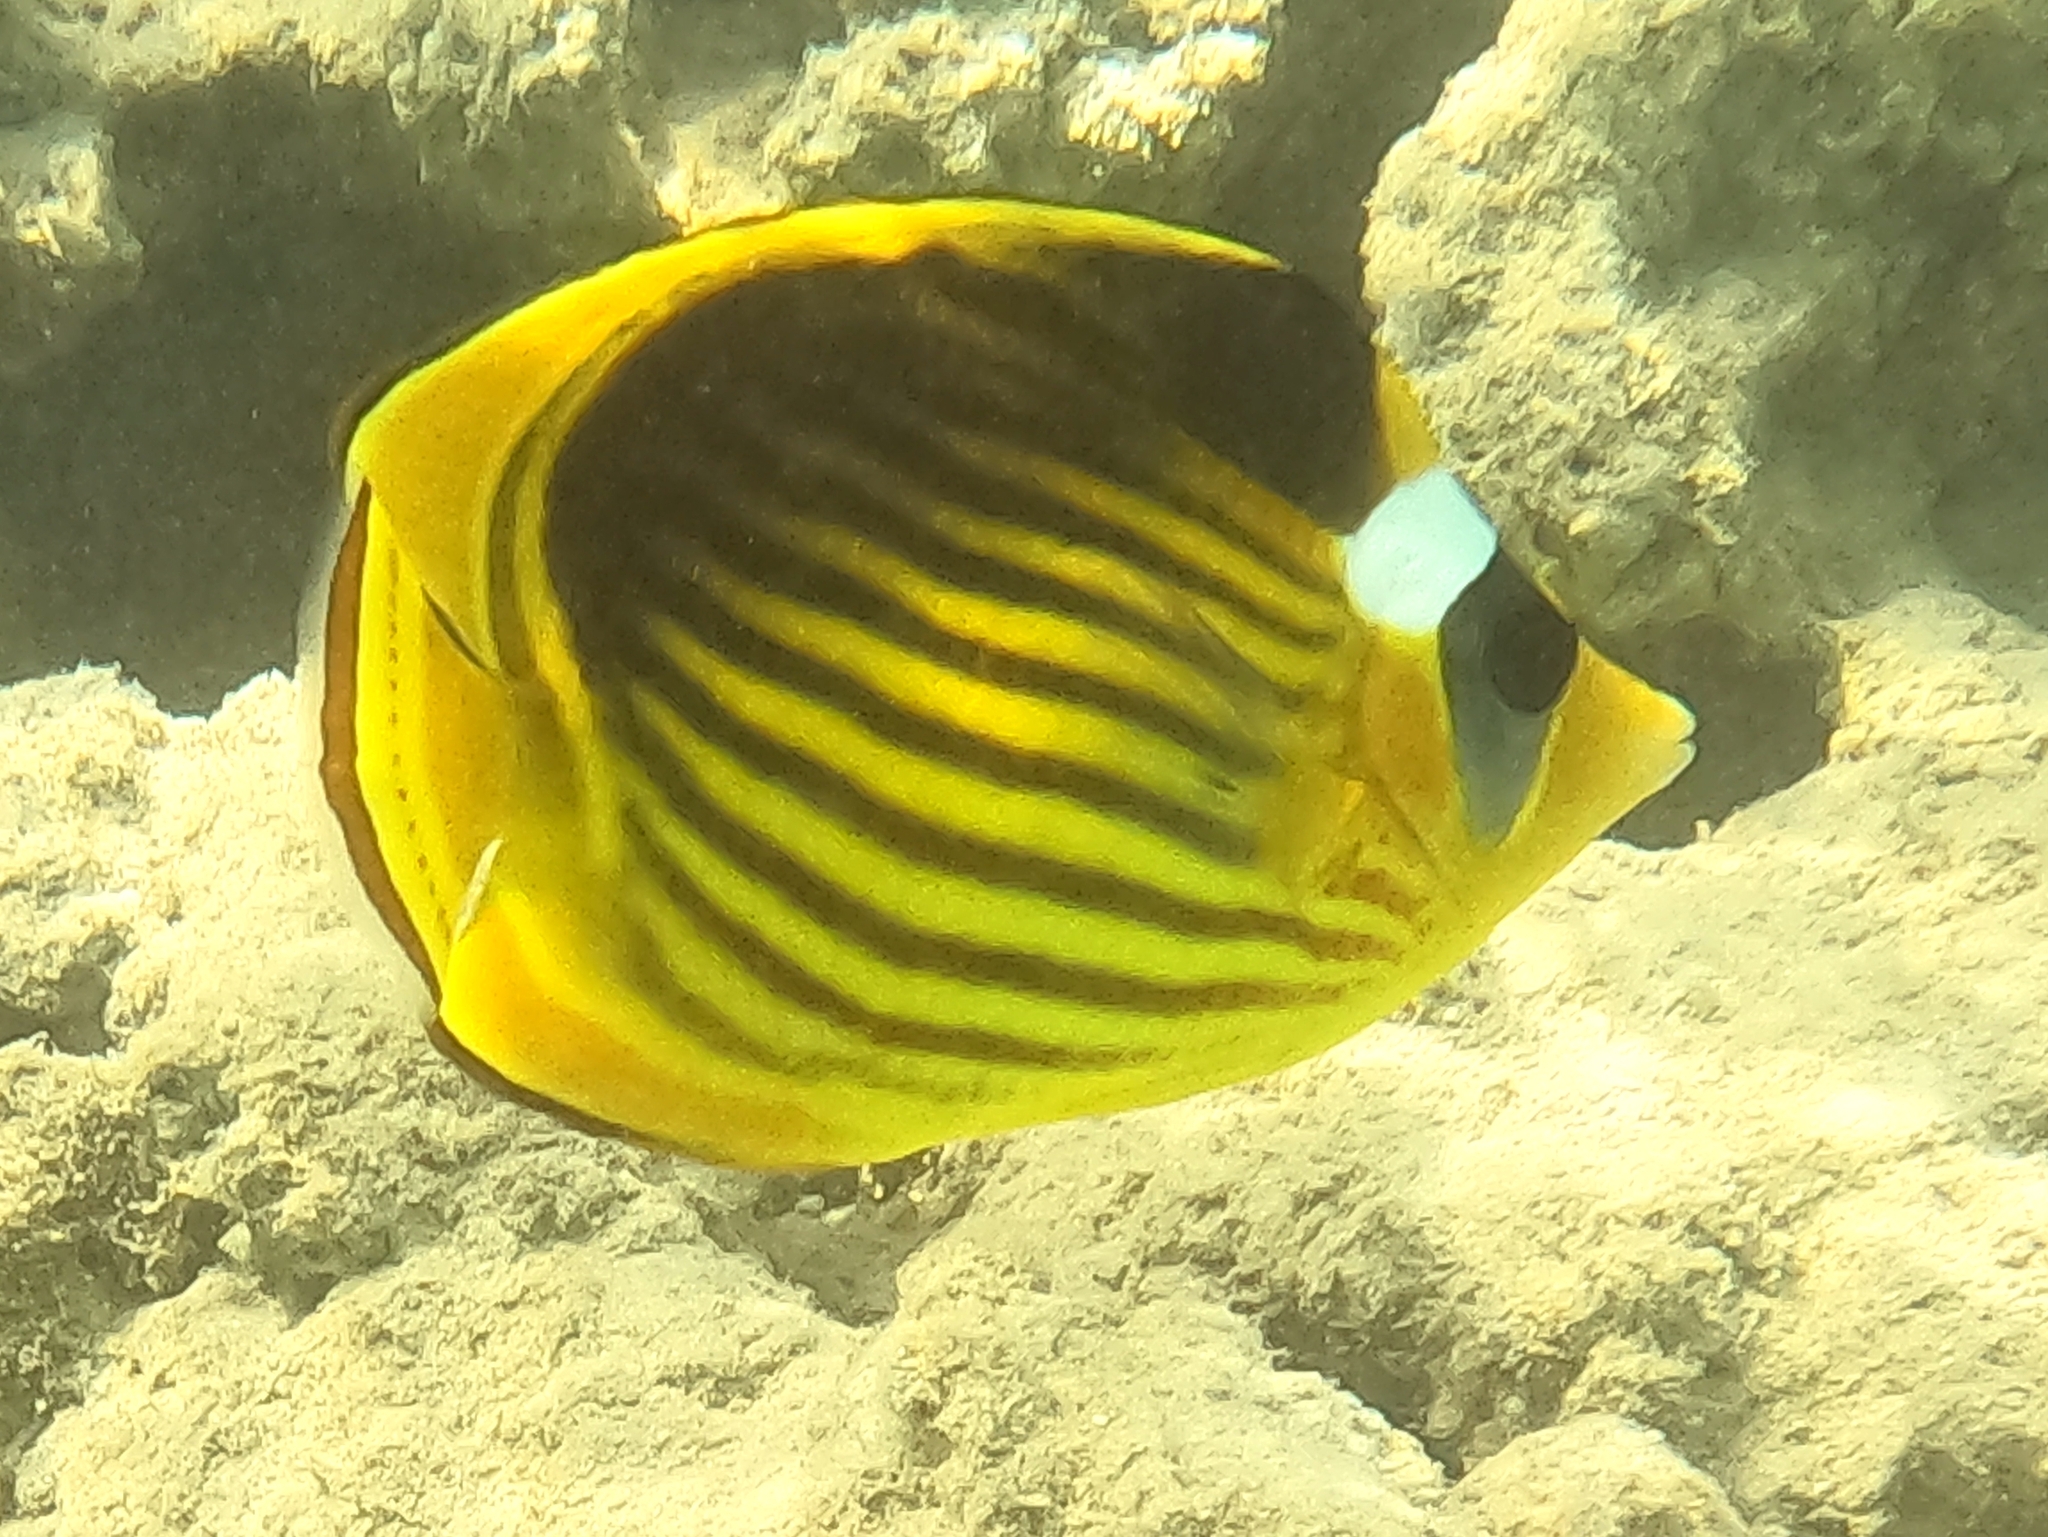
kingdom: Animalia
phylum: Chordata
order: Perciformes
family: Chaetodontidae
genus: Chaetodon
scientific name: Chaetodon fasciatus
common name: Diagonal butterflyfish
